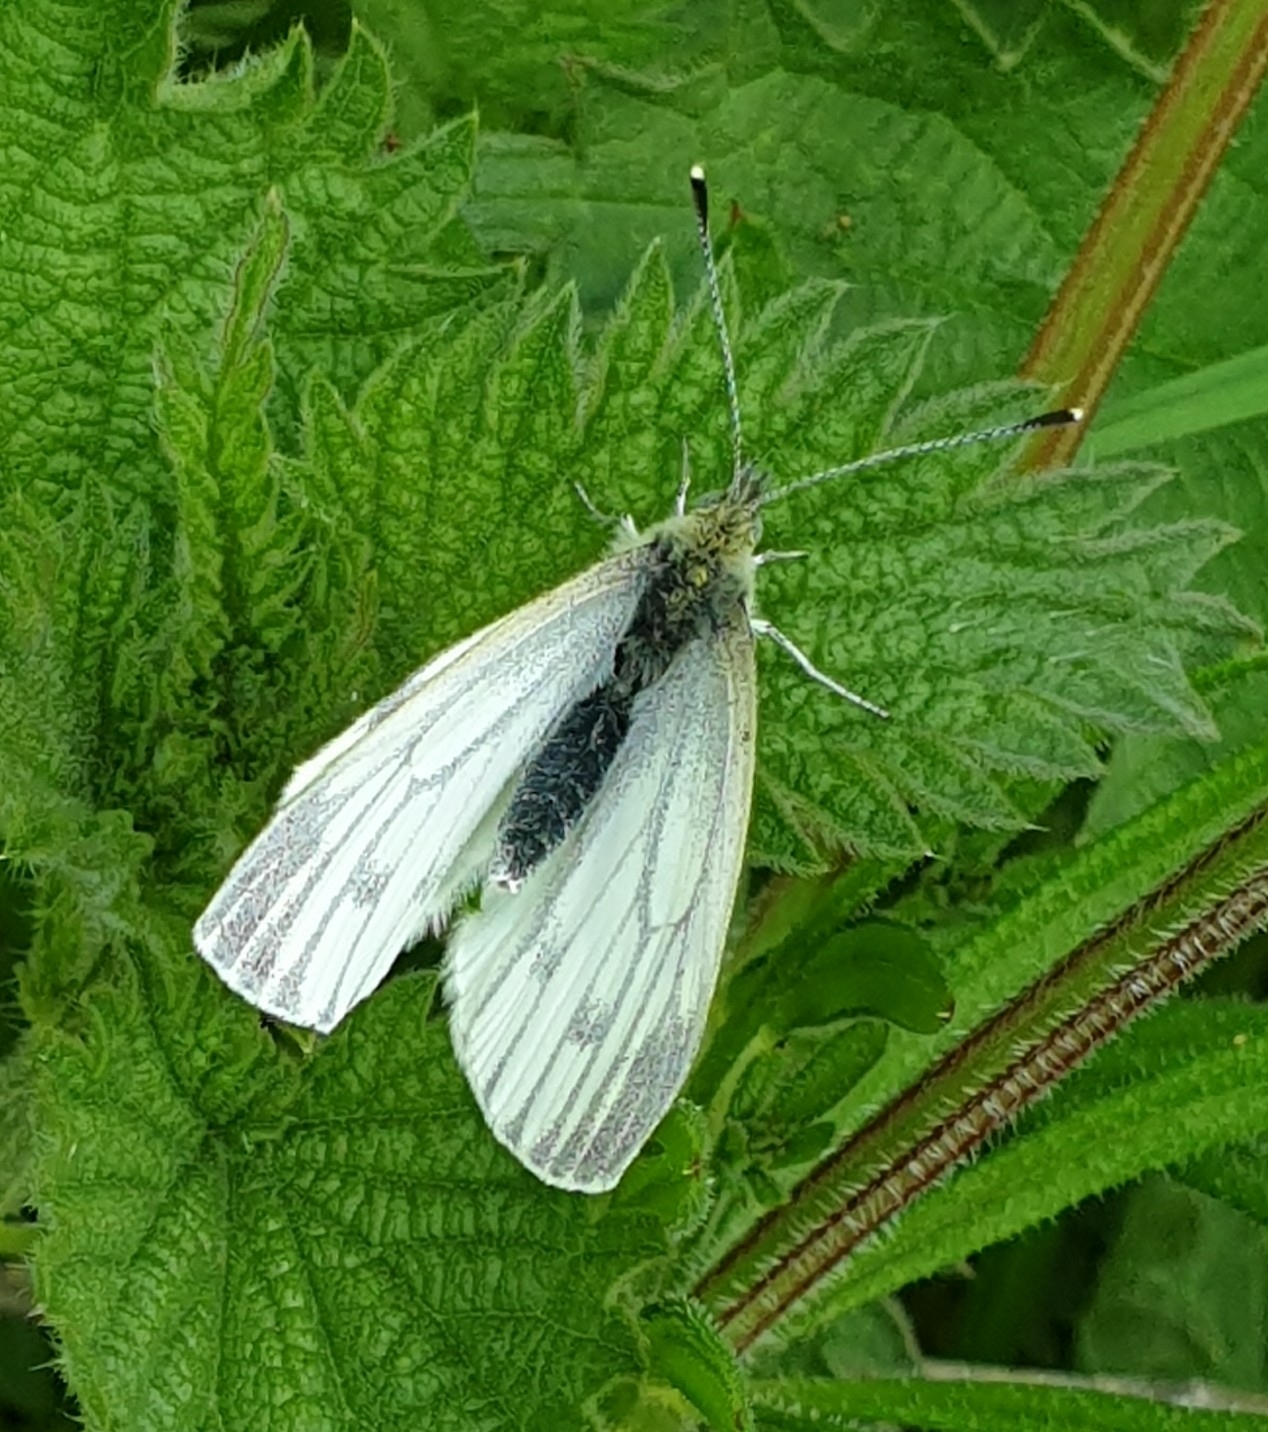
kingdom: Animalia
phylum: Arthropoda
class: Insecta
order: Lepidoptera
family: Pieridae
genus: Pieris
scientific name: Pieris napi
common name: Green-veined white
